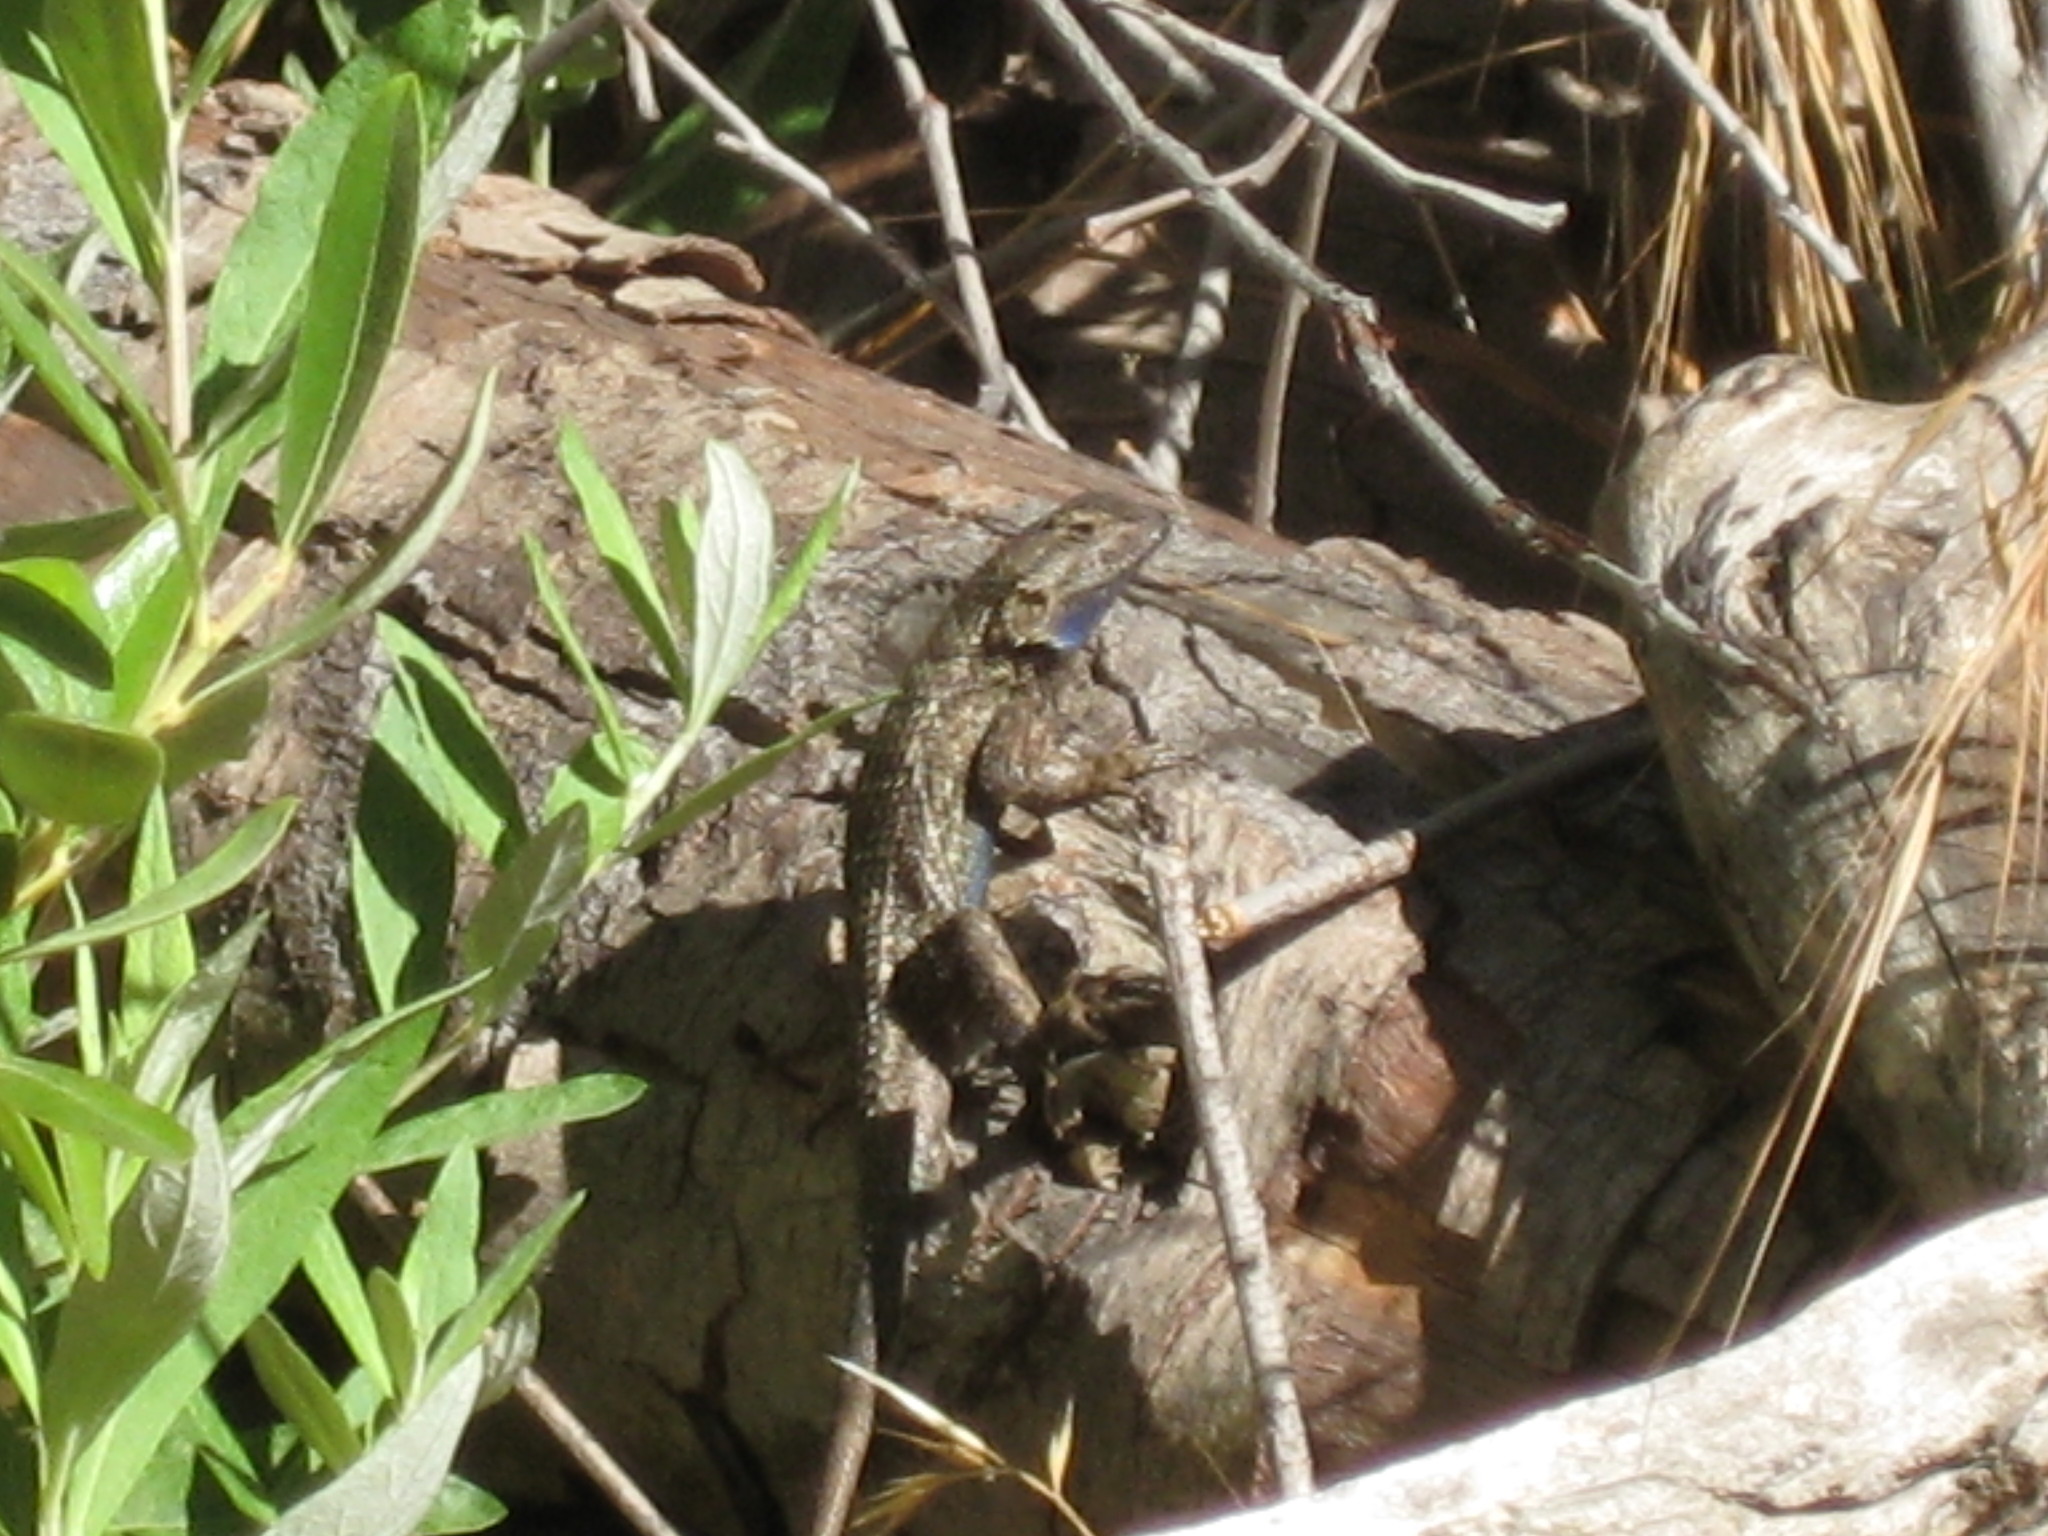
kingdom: Animalia
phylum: Chordata
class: Squamata
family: Phrynosomatidae
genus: Sceloporus
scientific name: Sceloporus occidentalis
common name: Western fence lizard
